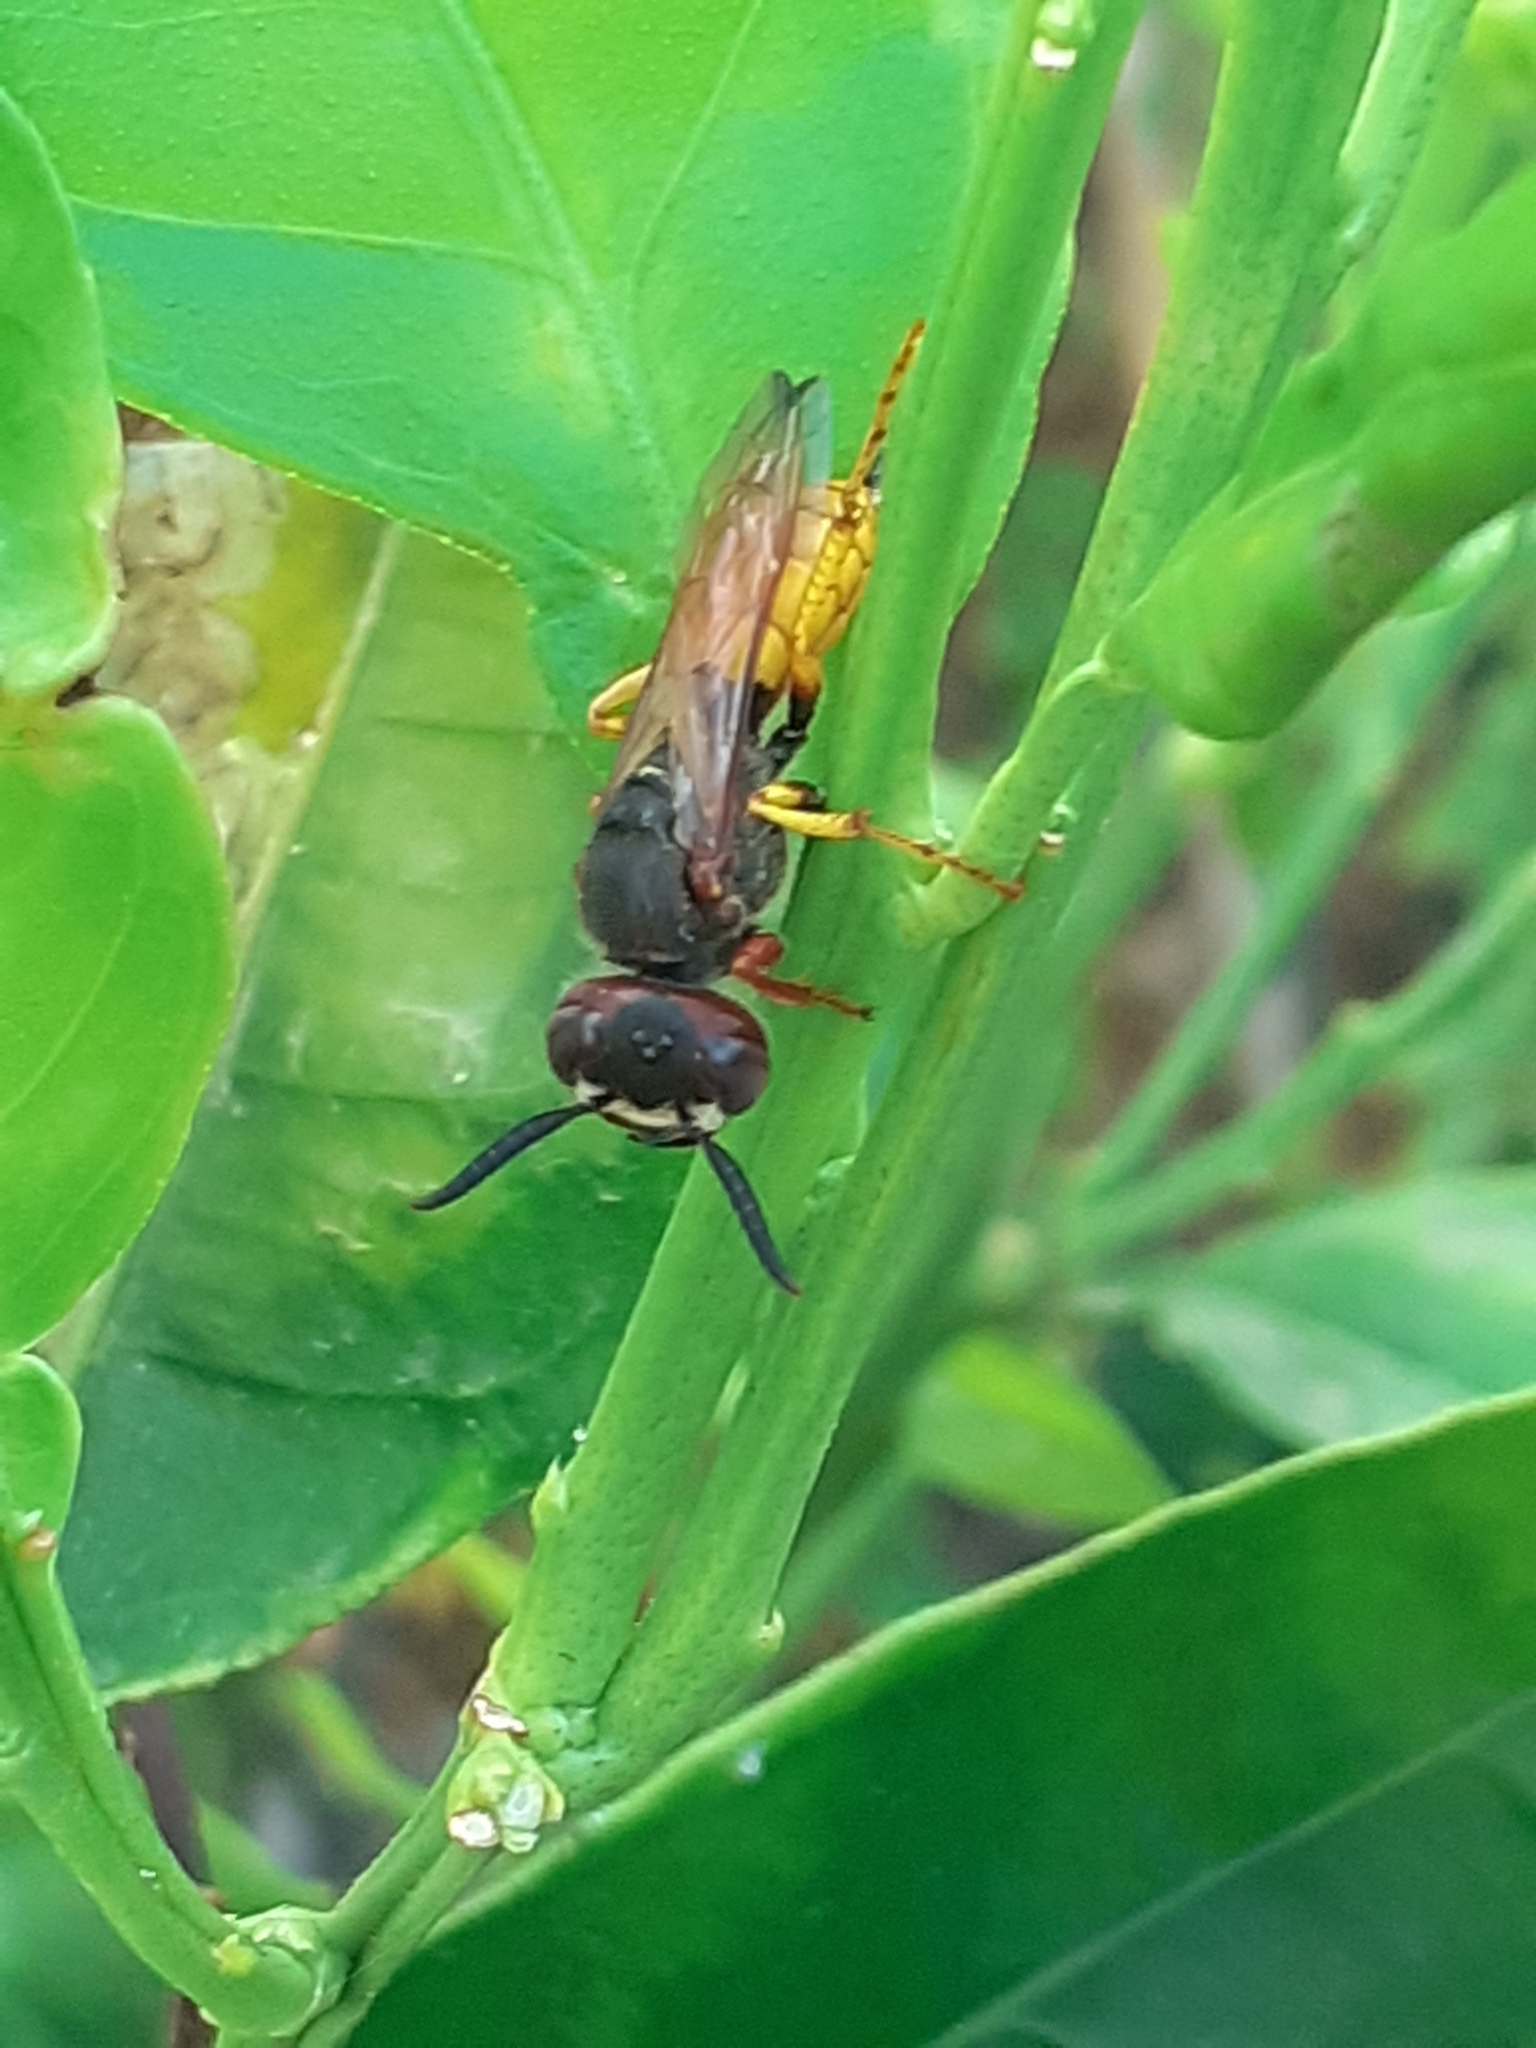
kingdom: Animalia
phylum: Arthropoda
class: Insecta
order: Hymenoptera
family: Crabronidae
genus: Philanthus
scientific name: Philanthus triangulum
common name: Bee wolf
